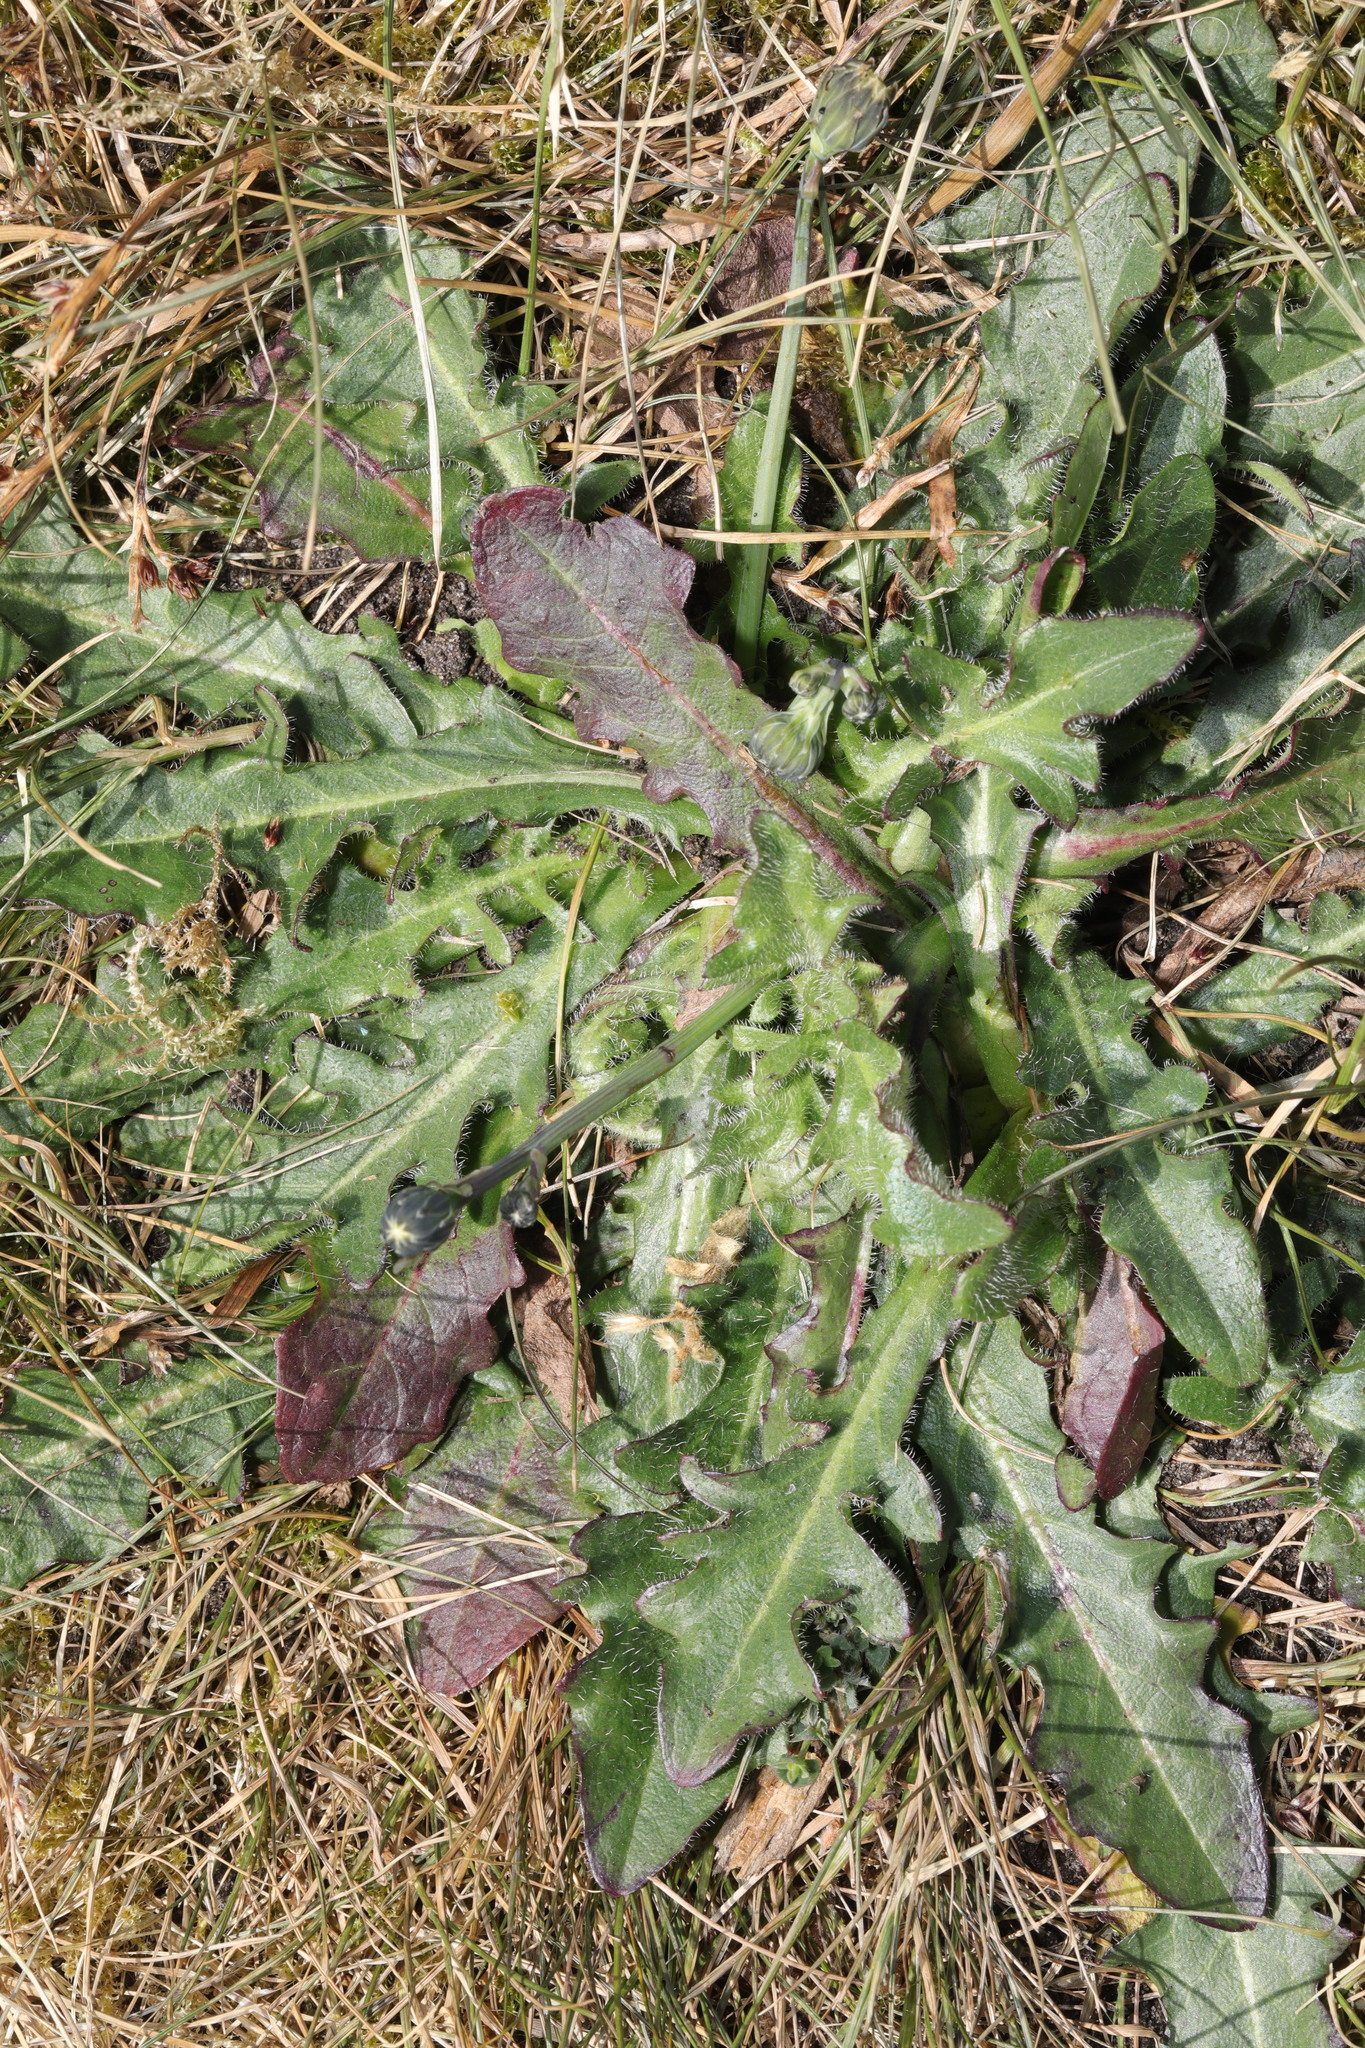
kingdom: Plantae
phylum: Tracheophyta
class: Magnoliopsida
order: Asterales
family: Asteraceae
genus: Hypochaeris
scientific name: Hypochaeris radicata
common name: Flatweed
